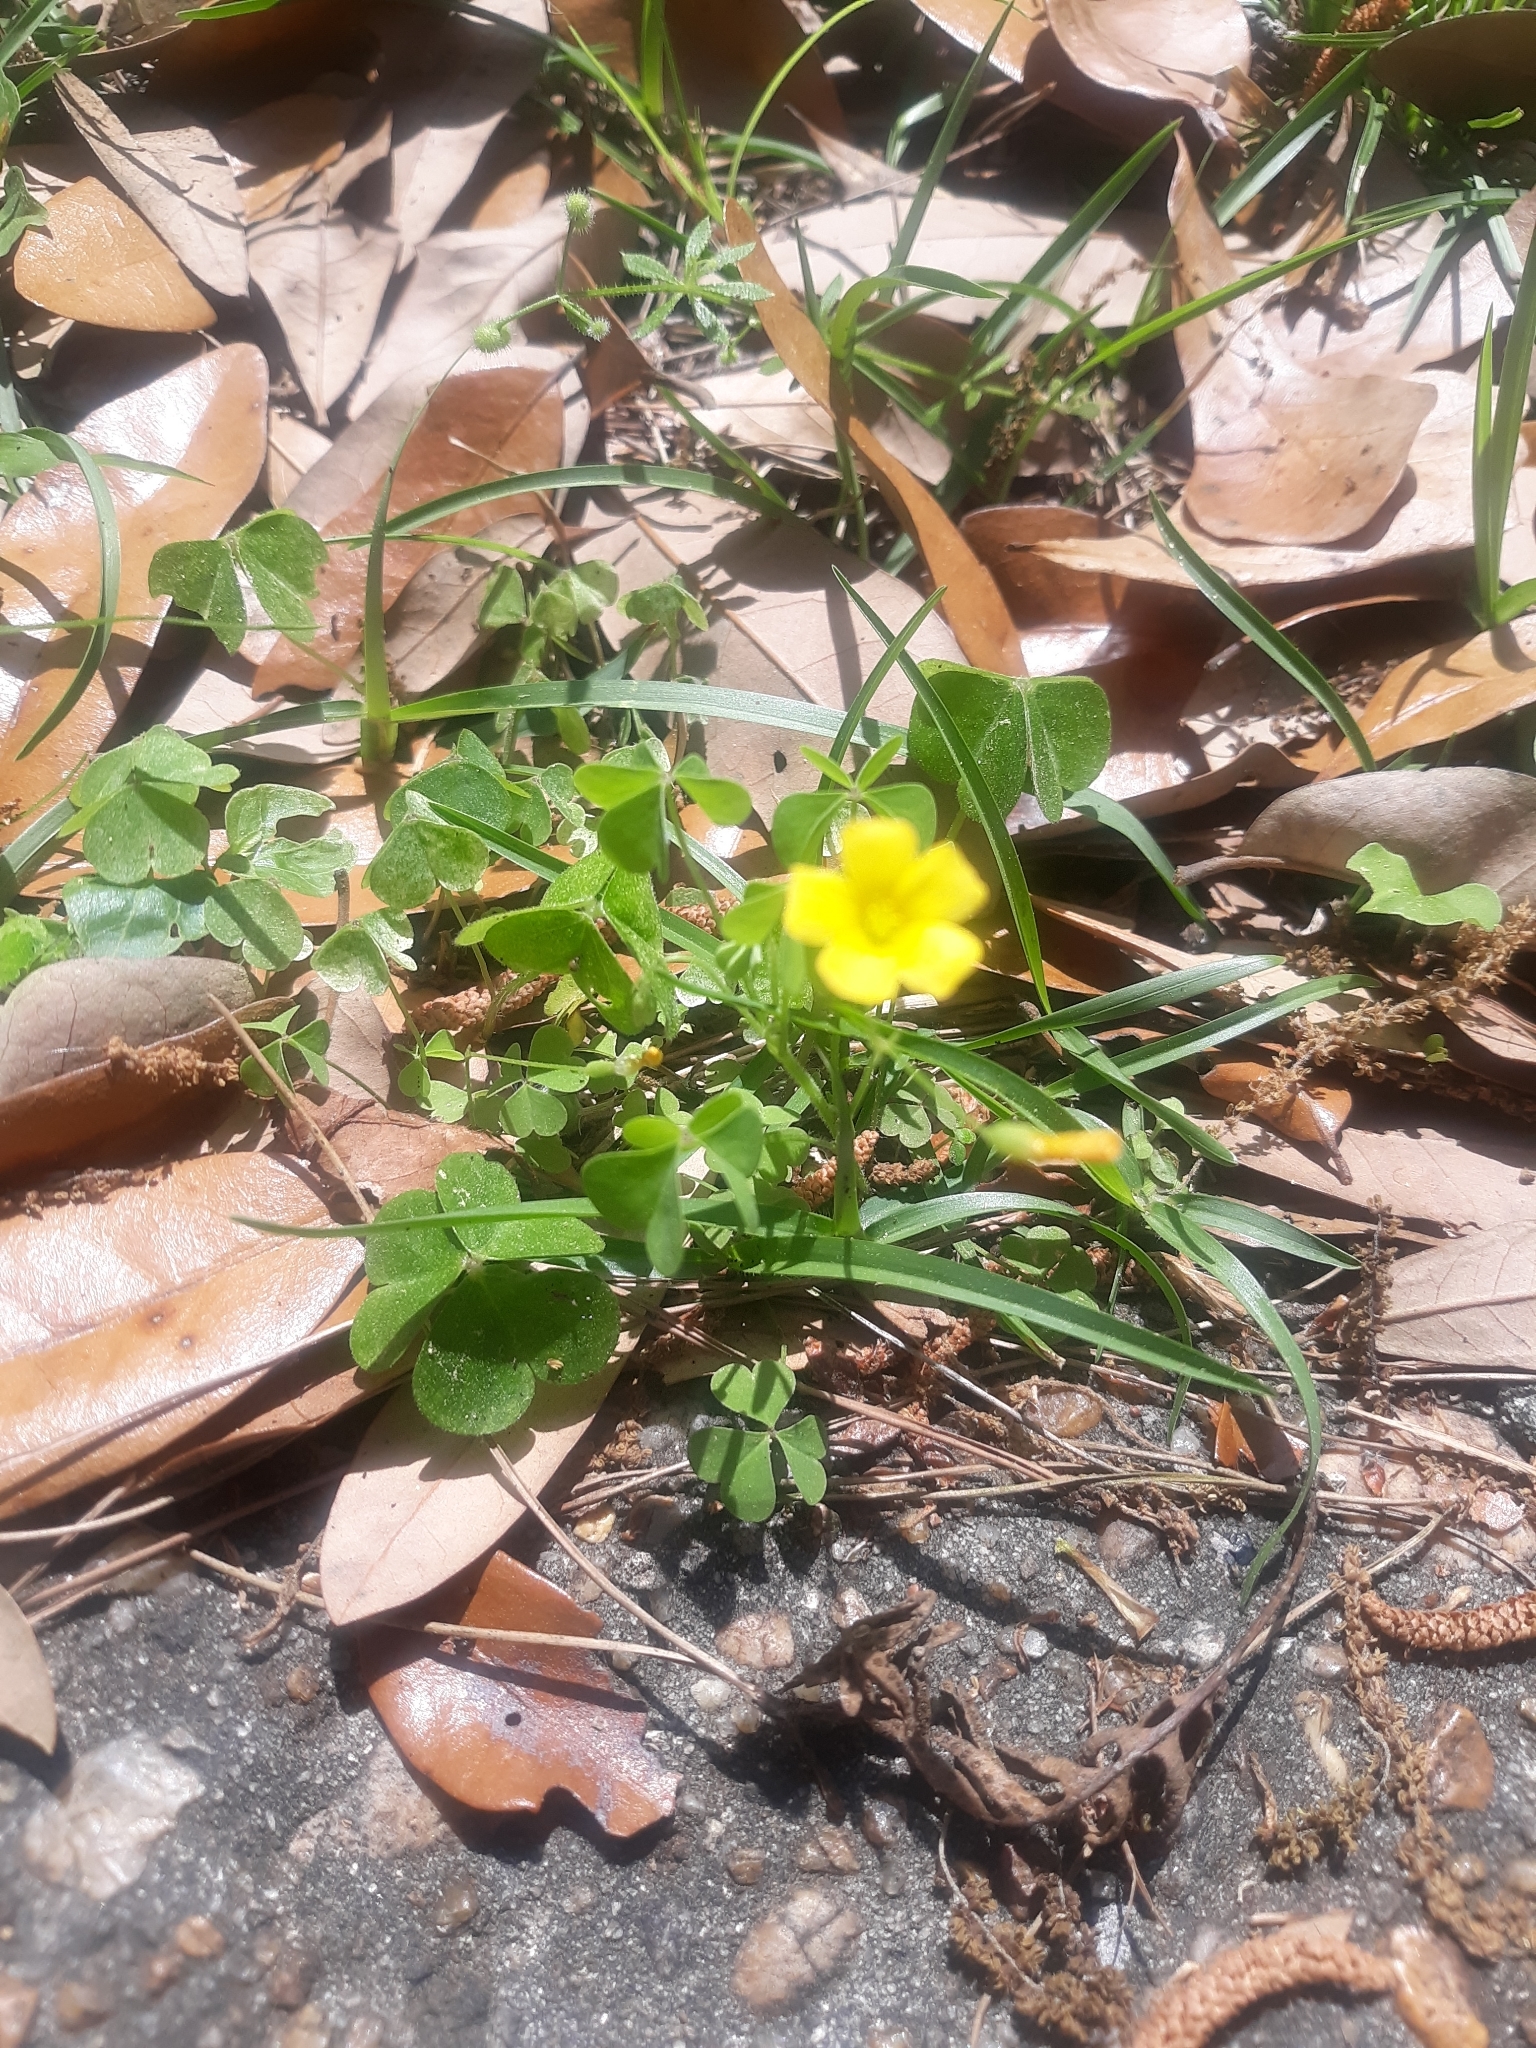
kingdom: Plantae
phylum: Tracheophyta
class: Magnoliopsida
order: Oxalidales
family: Oxalidaceae
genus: Oxalis
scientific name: Oxalis corniculata
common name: Procumbent yellow-sorrel
